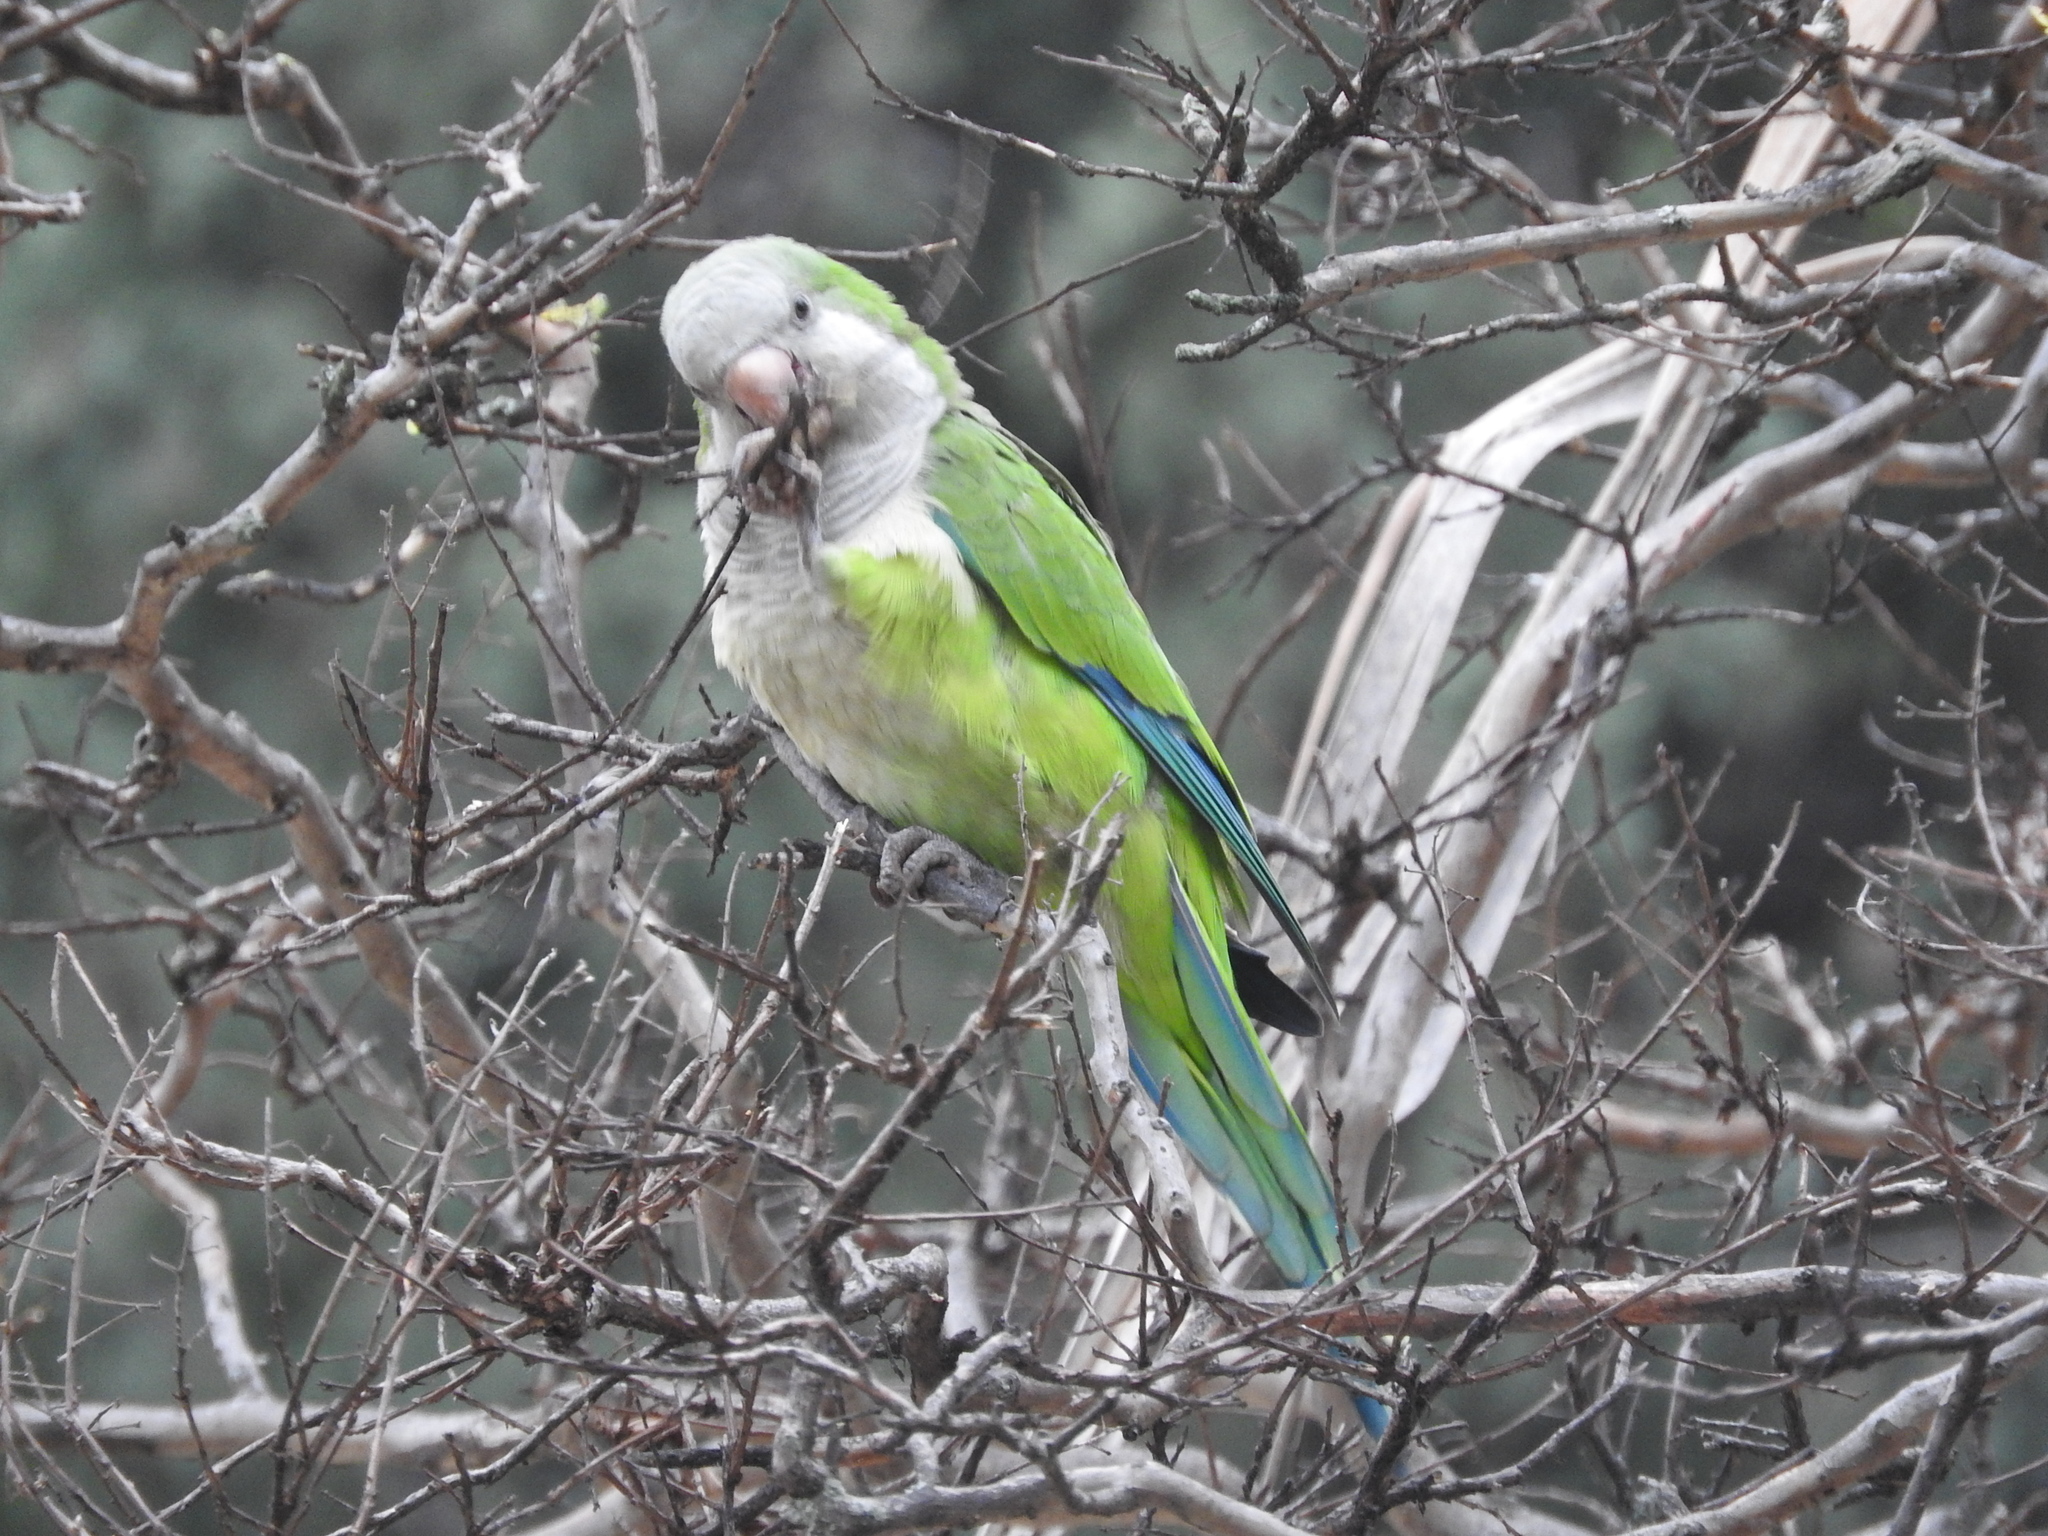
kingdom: Animalia
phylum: Chordata
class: Aves
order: Psittaciformes
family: Psittacidae
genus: Myiopsitta
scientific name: Myiopsitta monachus
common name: Monk parakeet
